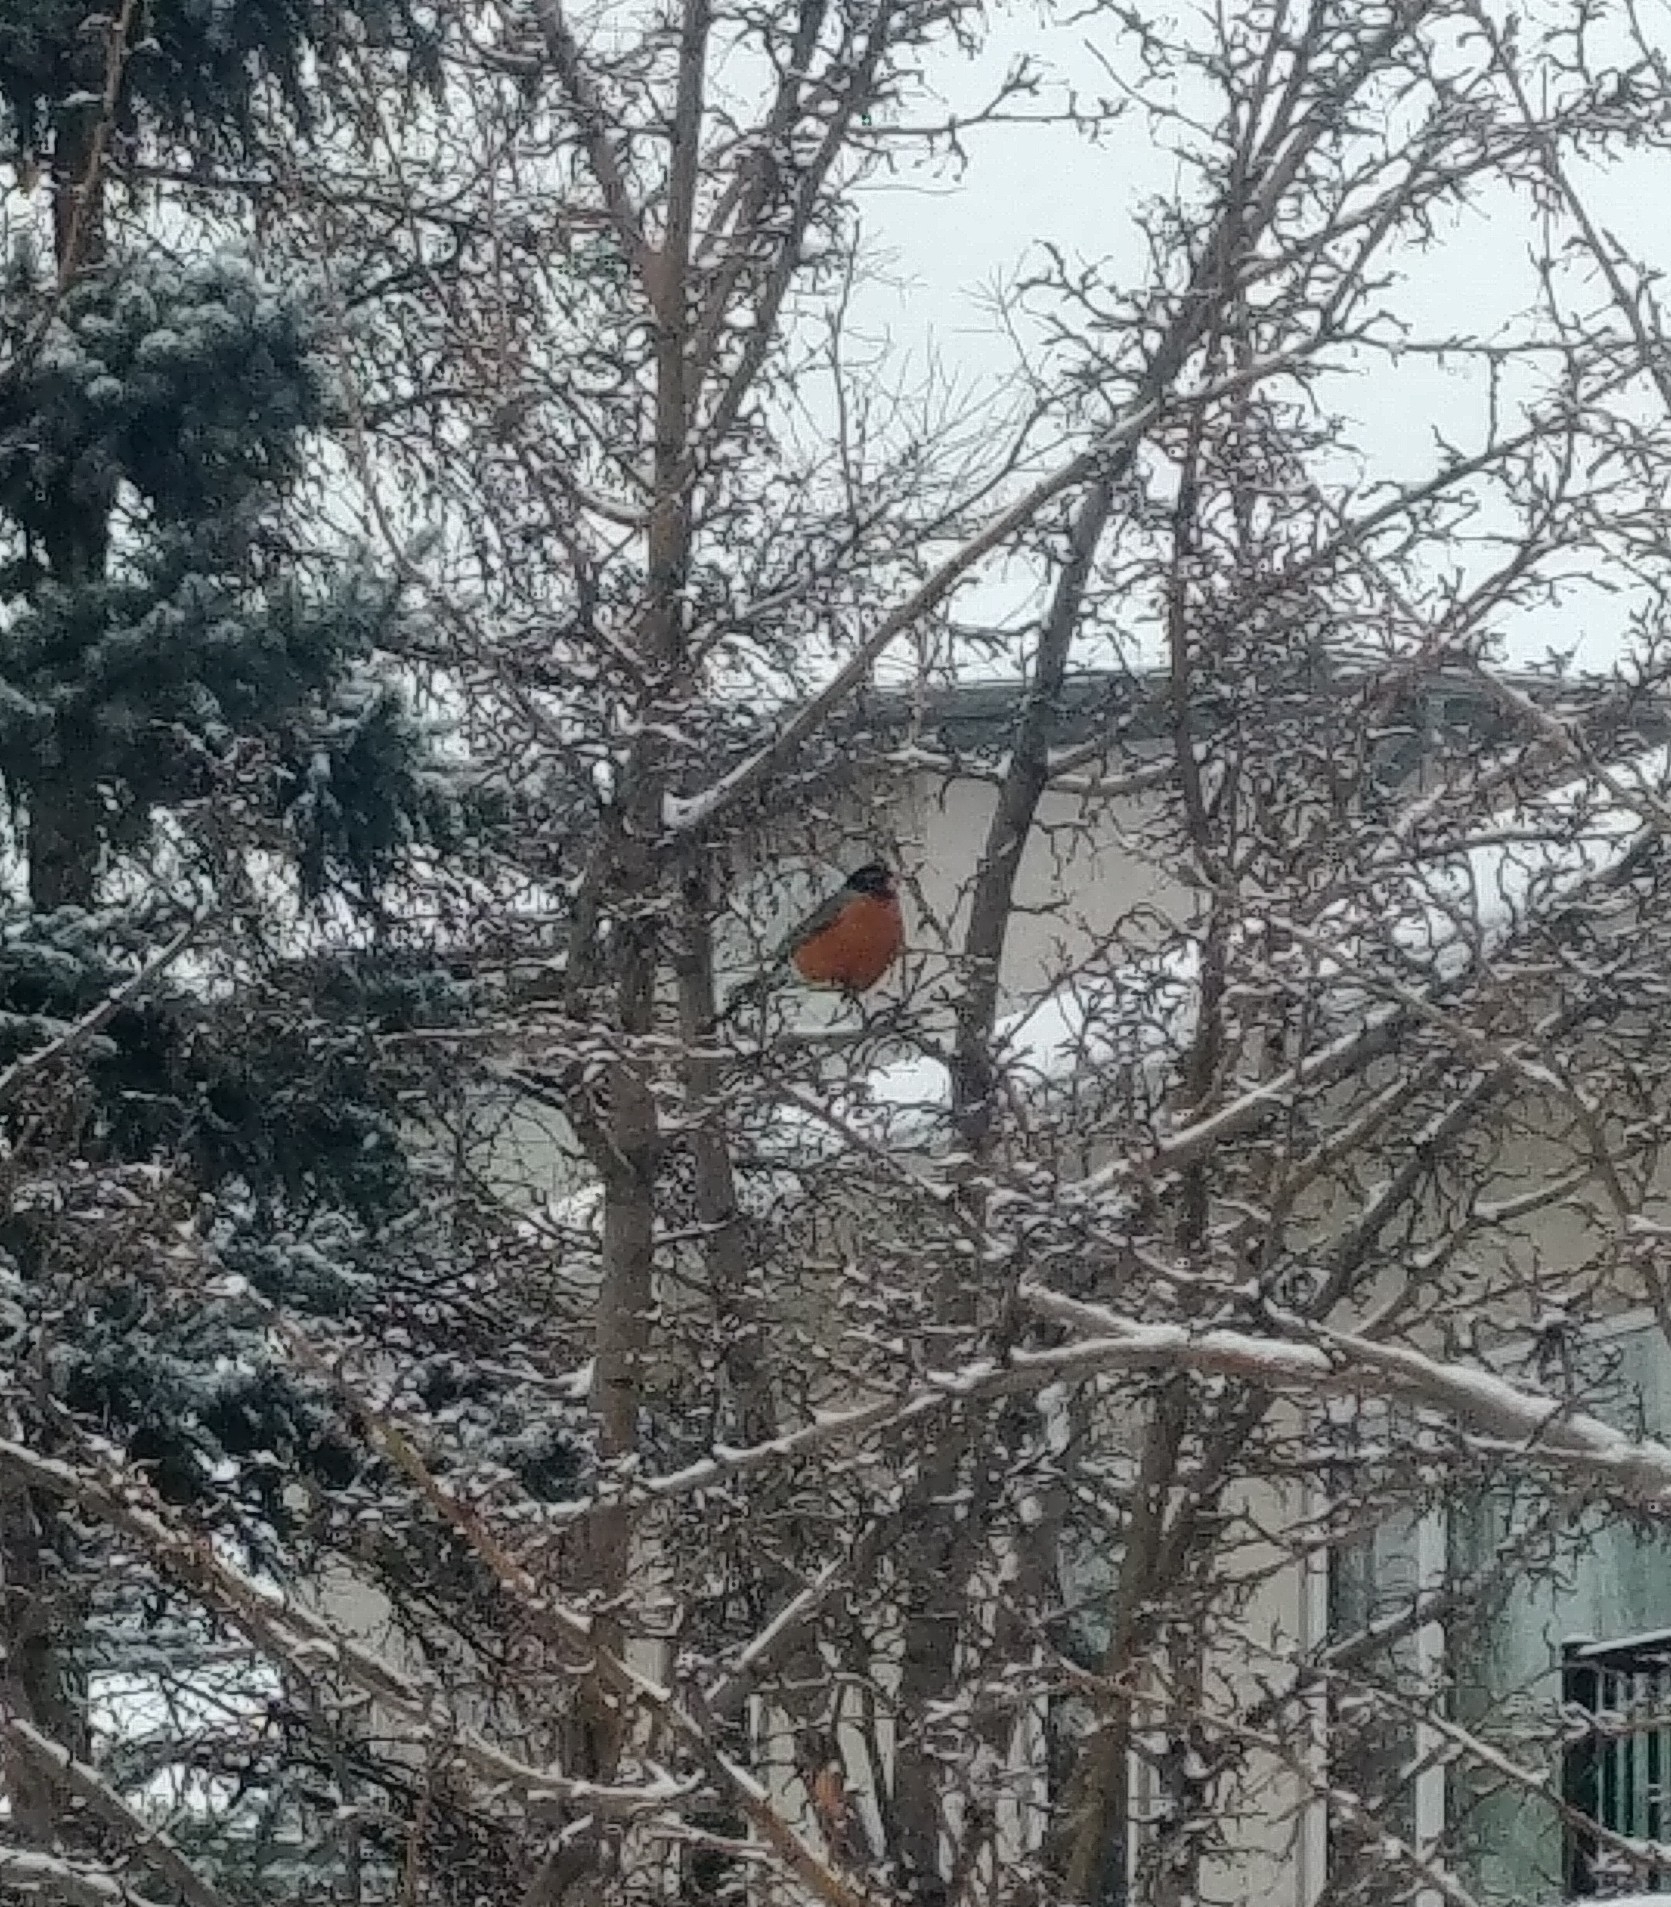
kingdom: Animalia
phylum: Chordata
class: Aves
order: Passeriformes
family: Turdidae
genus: Turdus
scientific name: Turdus migratorius
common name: American robin
